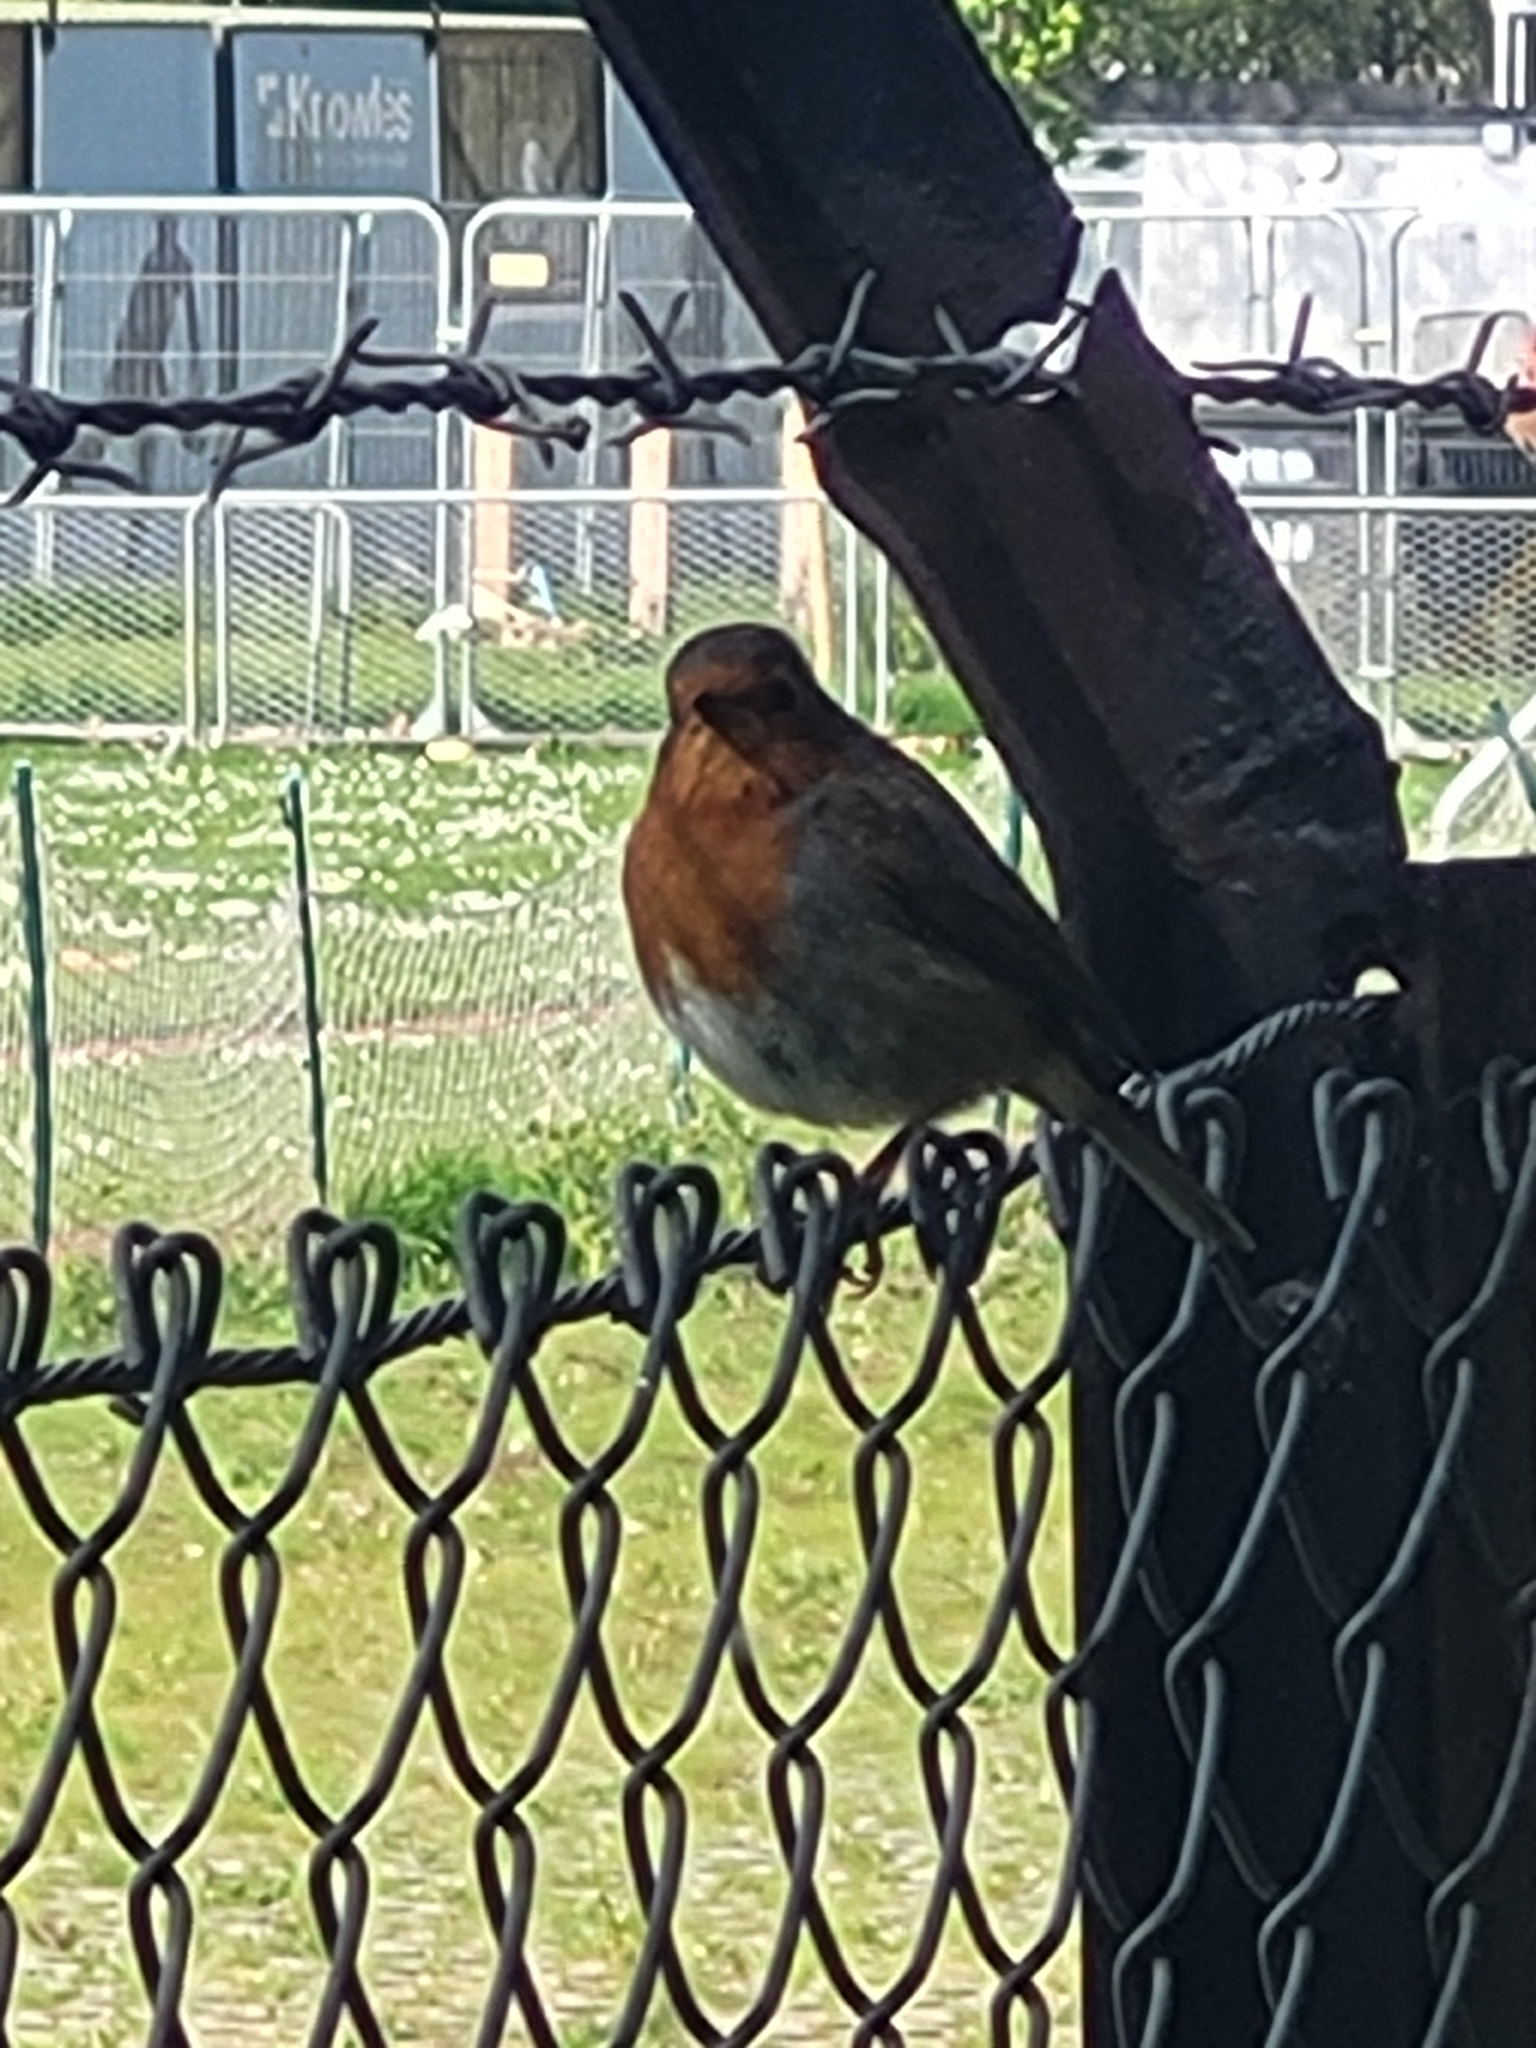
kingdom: Animalia
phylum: Chordata
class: Aves
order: Passeriformes
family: Muscicapidae
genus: Erithacus
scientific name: Erithacus rubecula
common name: European robin
